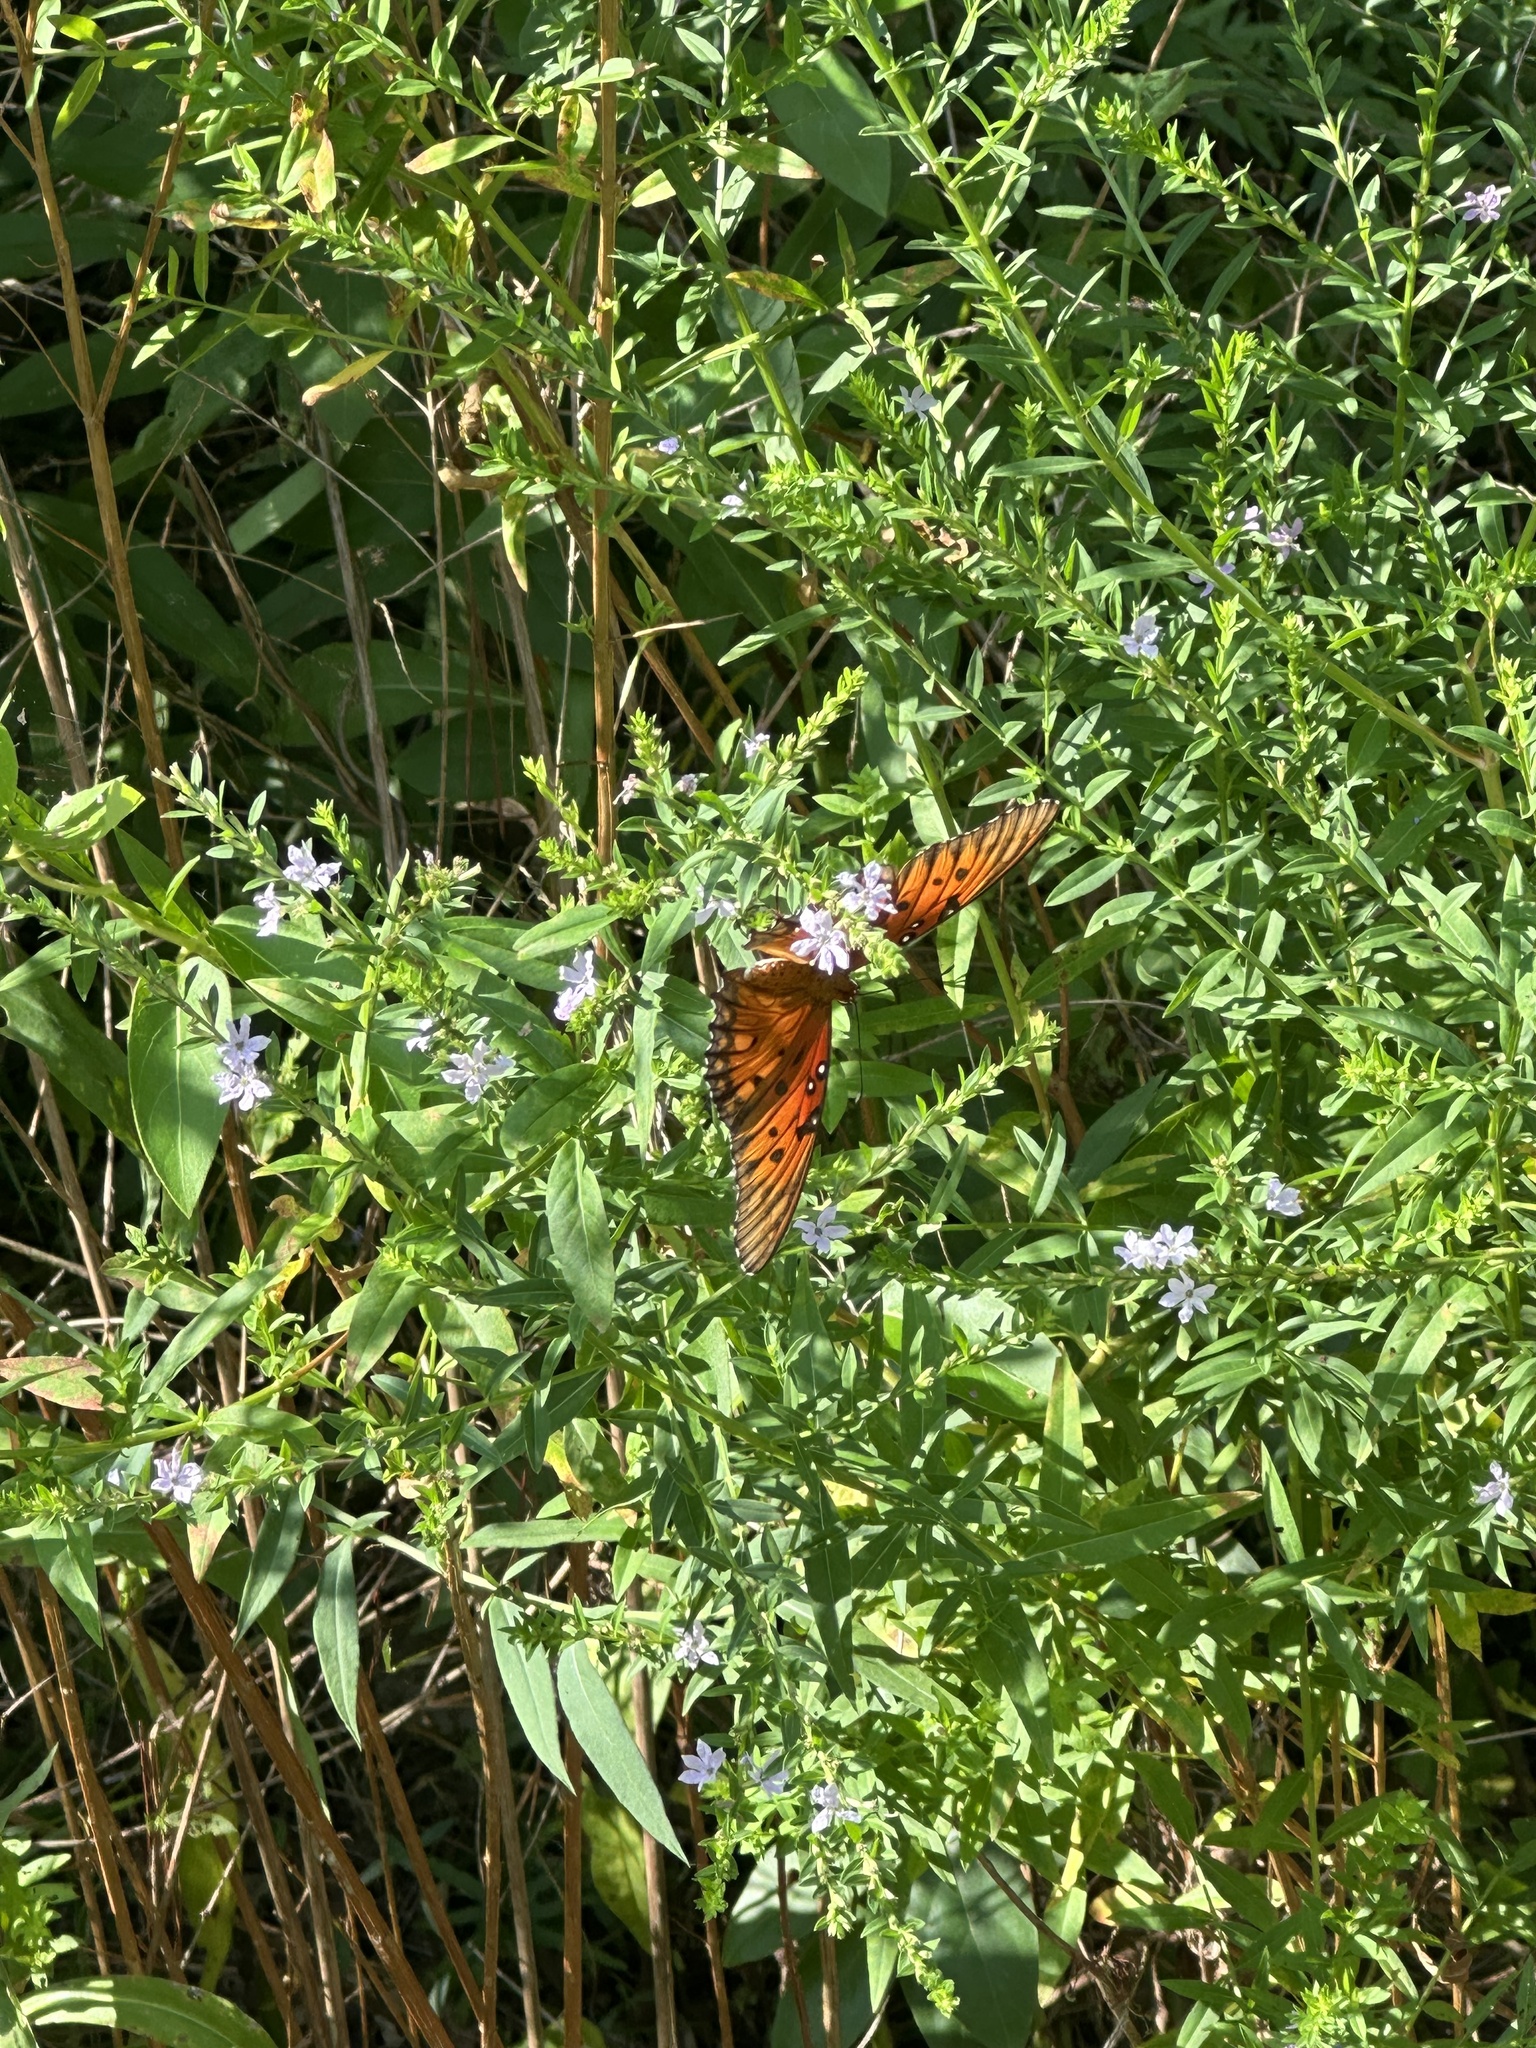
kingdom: Animalia
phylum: Arthropoda
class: Insecta
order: Lepidoptera
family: Nymphalidae
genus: Dione
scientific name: Dione vanillae
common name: Gulf fritillary
